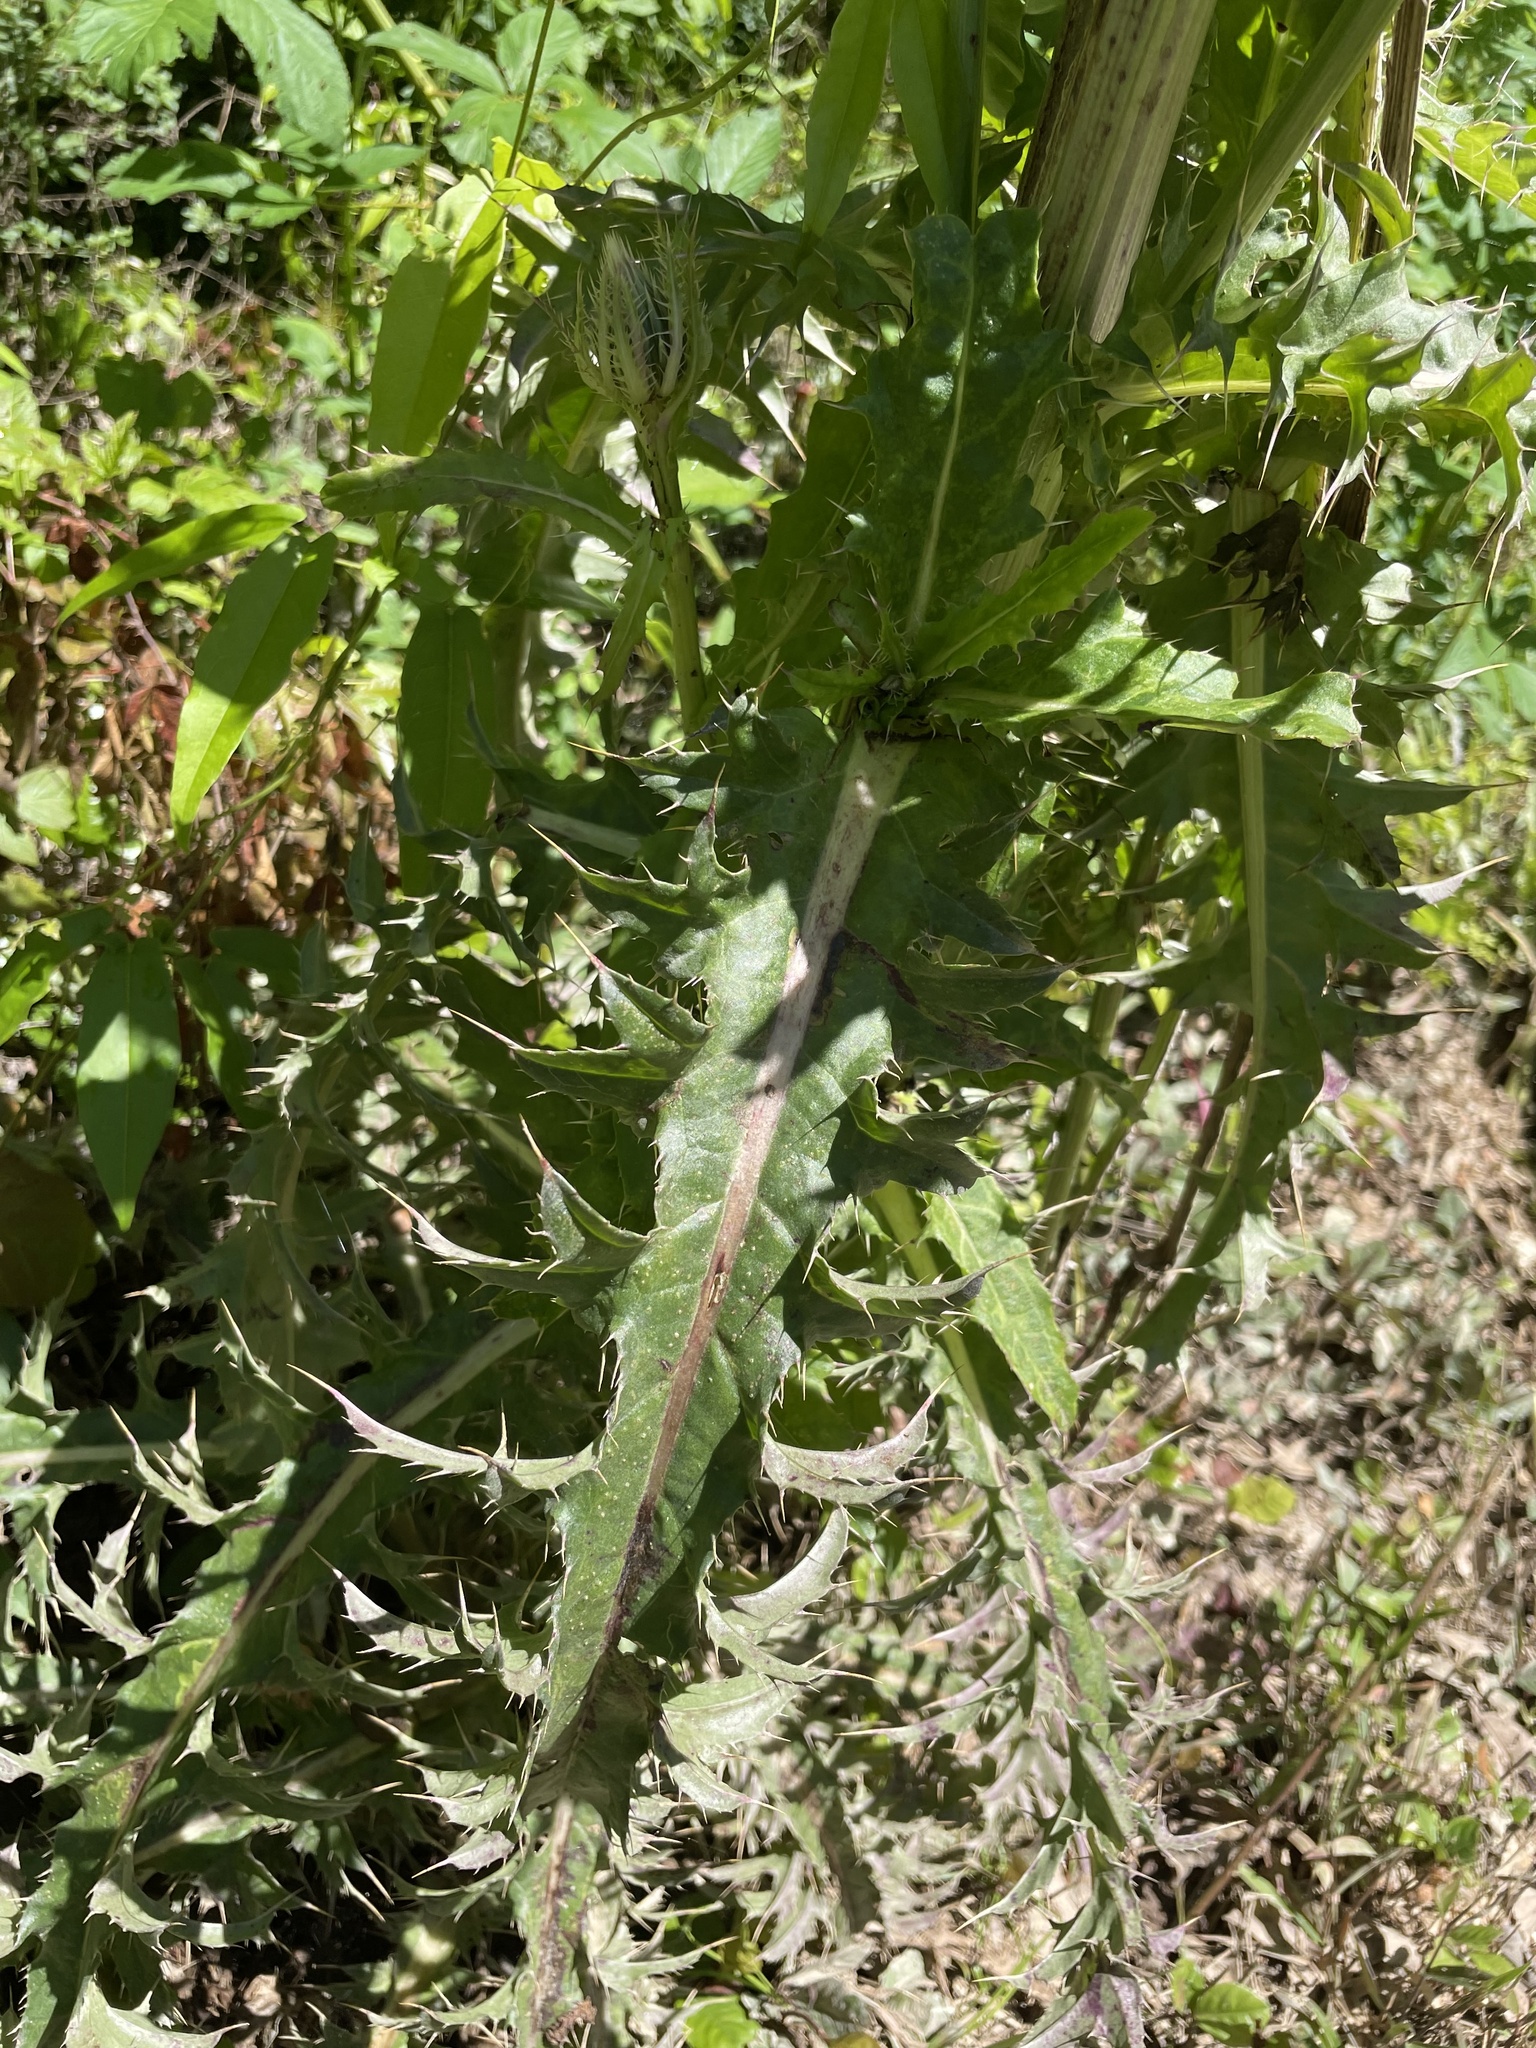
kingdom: Plantae
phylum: Tracheophyta
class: Magnoliopsida
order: Asterales
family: Asteraceae
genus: Cirsium
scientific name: Cirsium horridulum
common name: Bristly thistle
